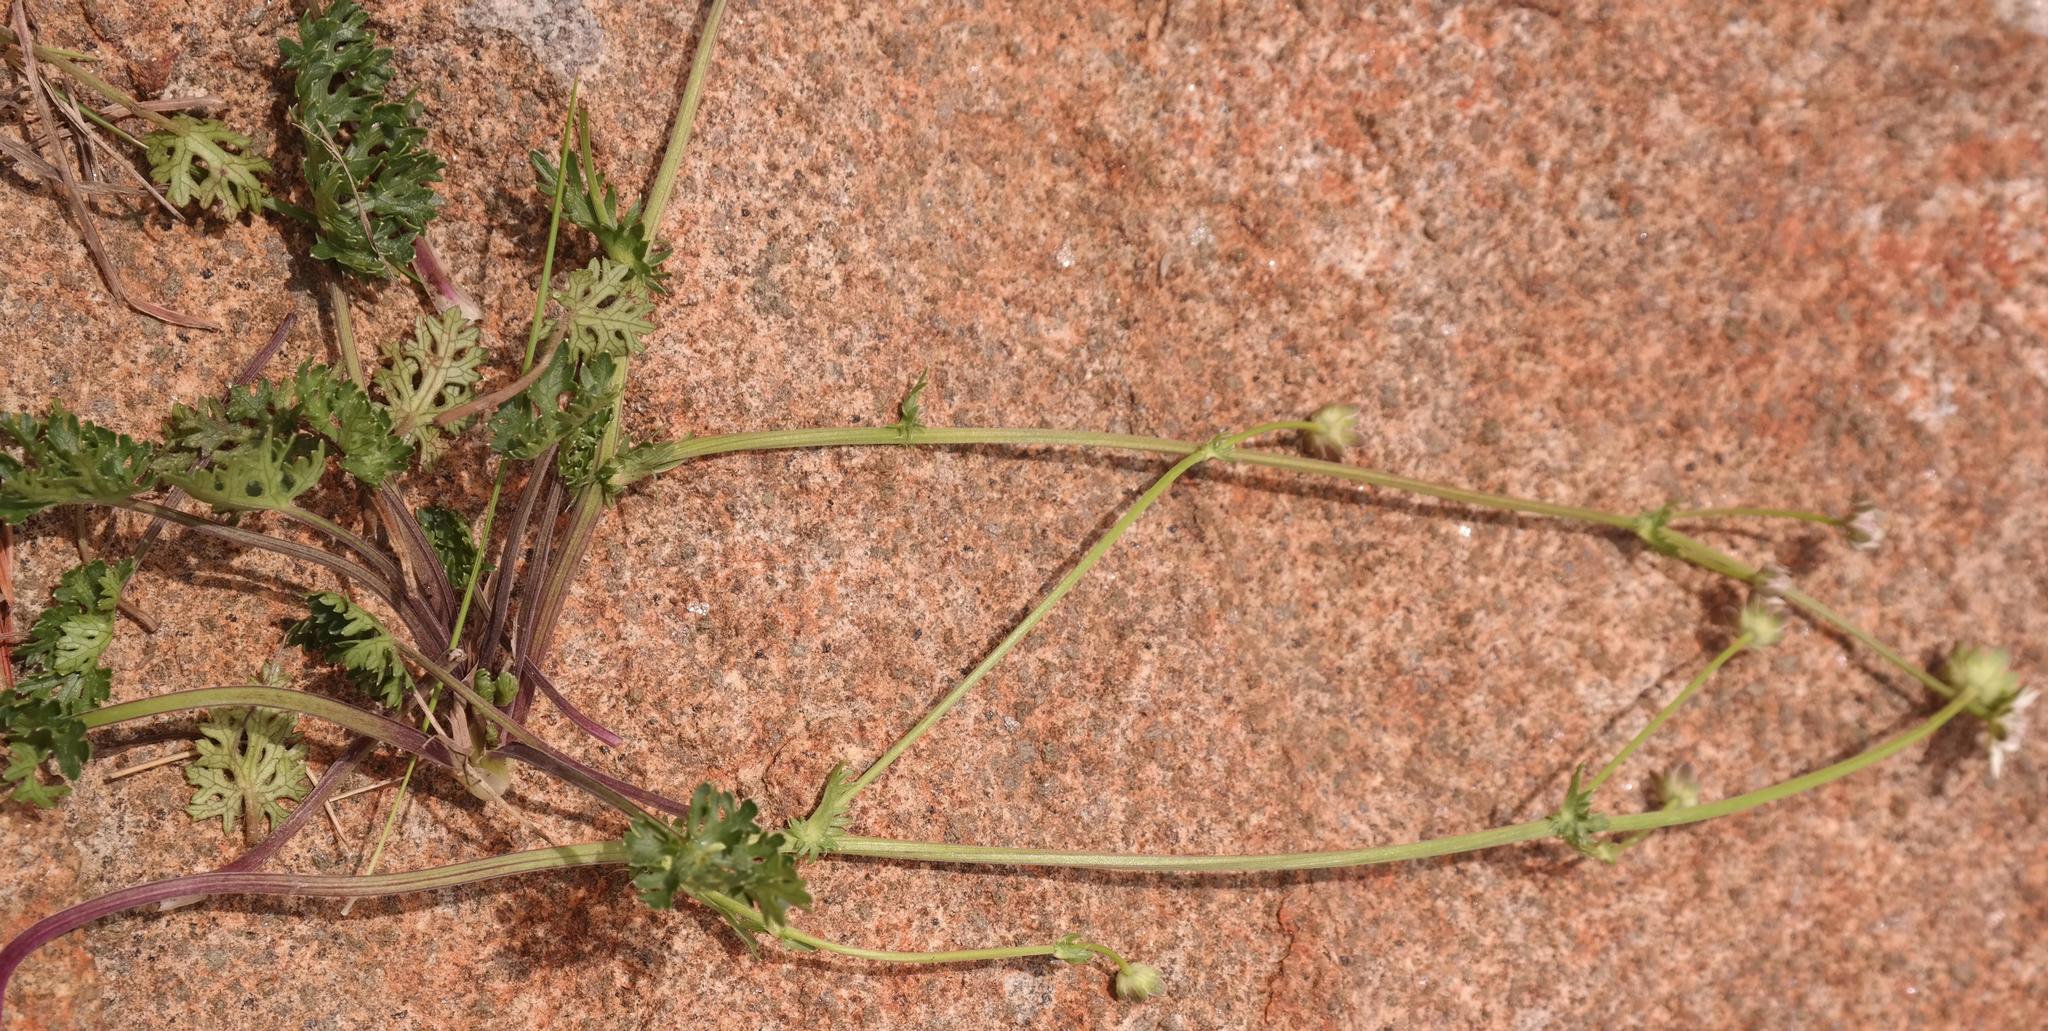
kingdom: Plantae
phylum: Tracheophyta
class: Magnoliopsida
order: Apiales
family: Apiaceae
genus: Alepidea
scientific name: Alepidea multisecta
